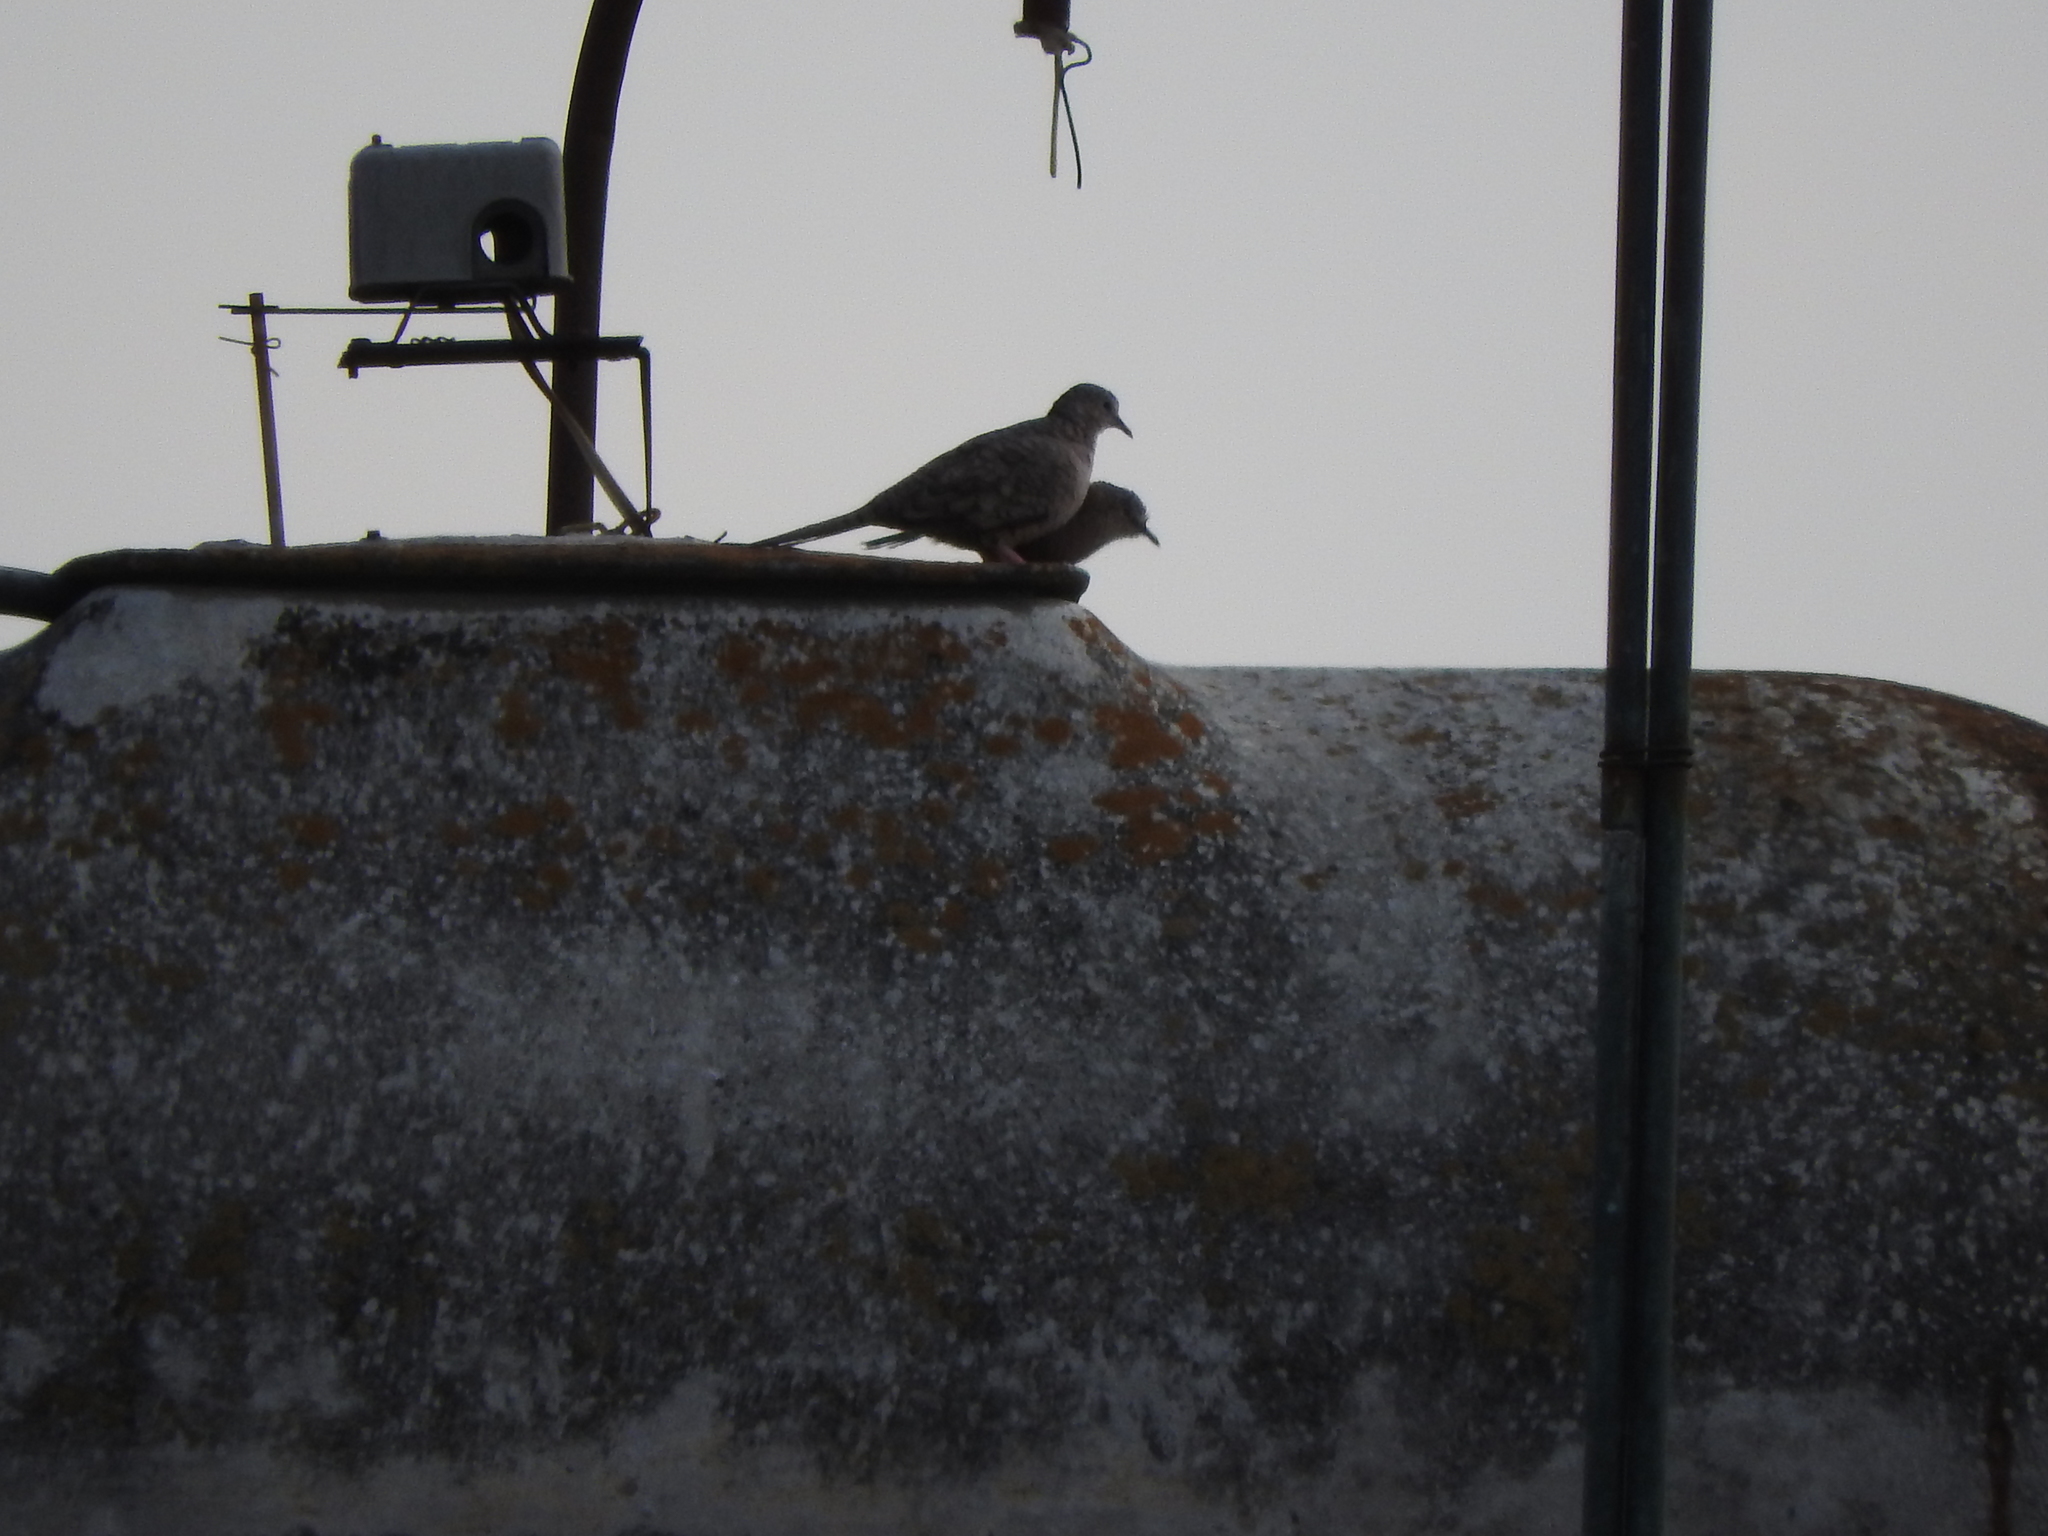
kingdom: Animalia
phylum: Chordata
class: Aves
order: Columbiformes
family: Columbidae
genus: Columbina
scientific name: Columbina inca
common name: Inca dove
